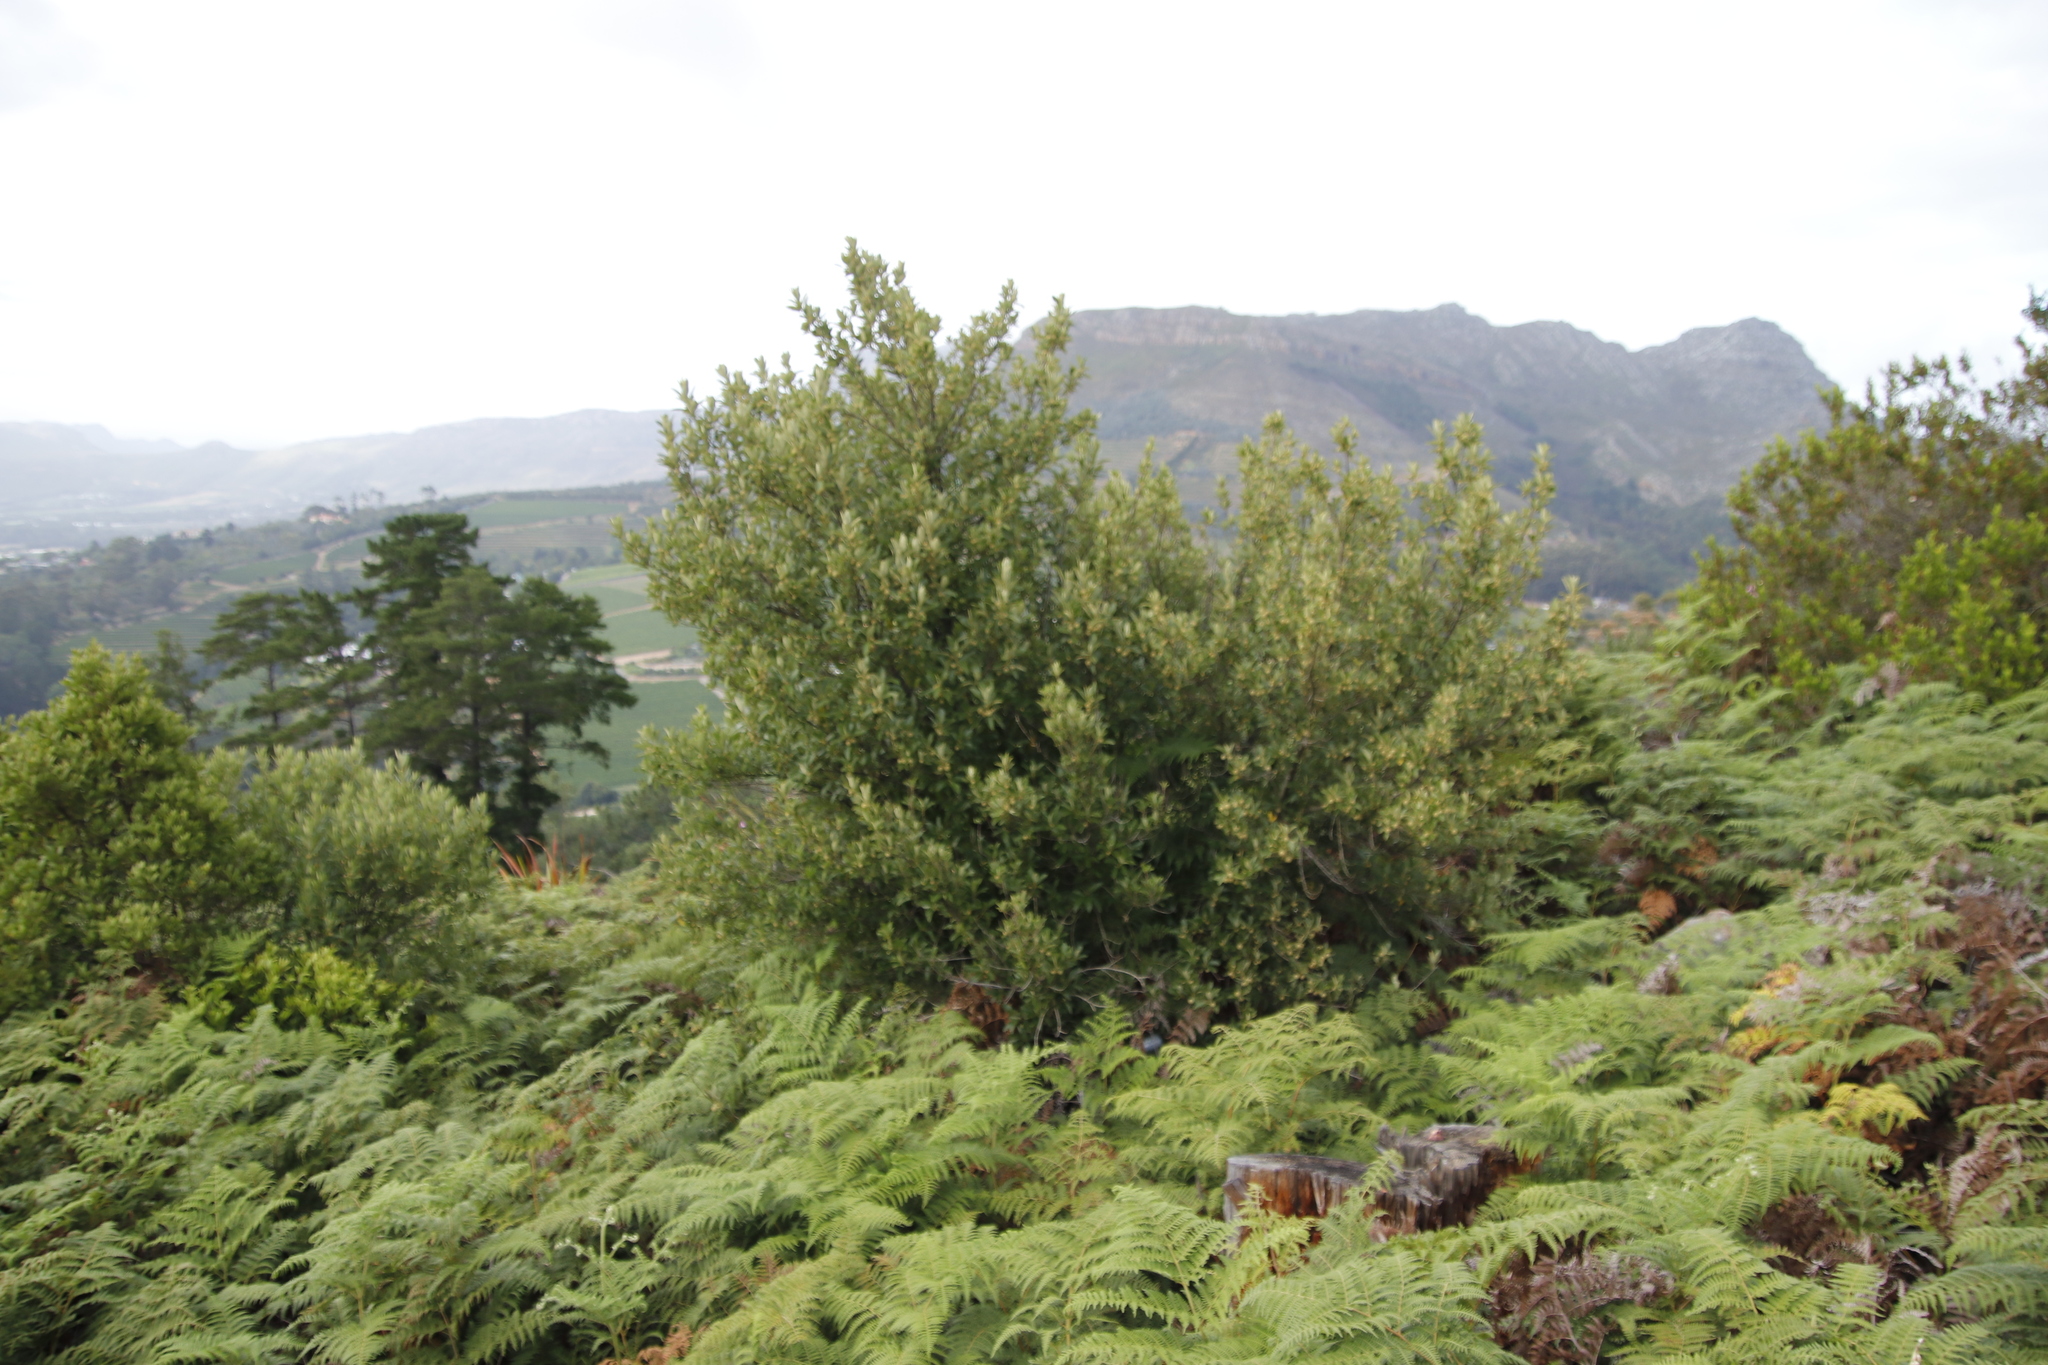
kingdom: Plantae
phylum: Tracheophyta
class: Magnoliopsida
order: Malpighiales
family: Achariaceae
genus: Kiggelaria
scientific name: Kiggelaria africana
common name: Wild peach
